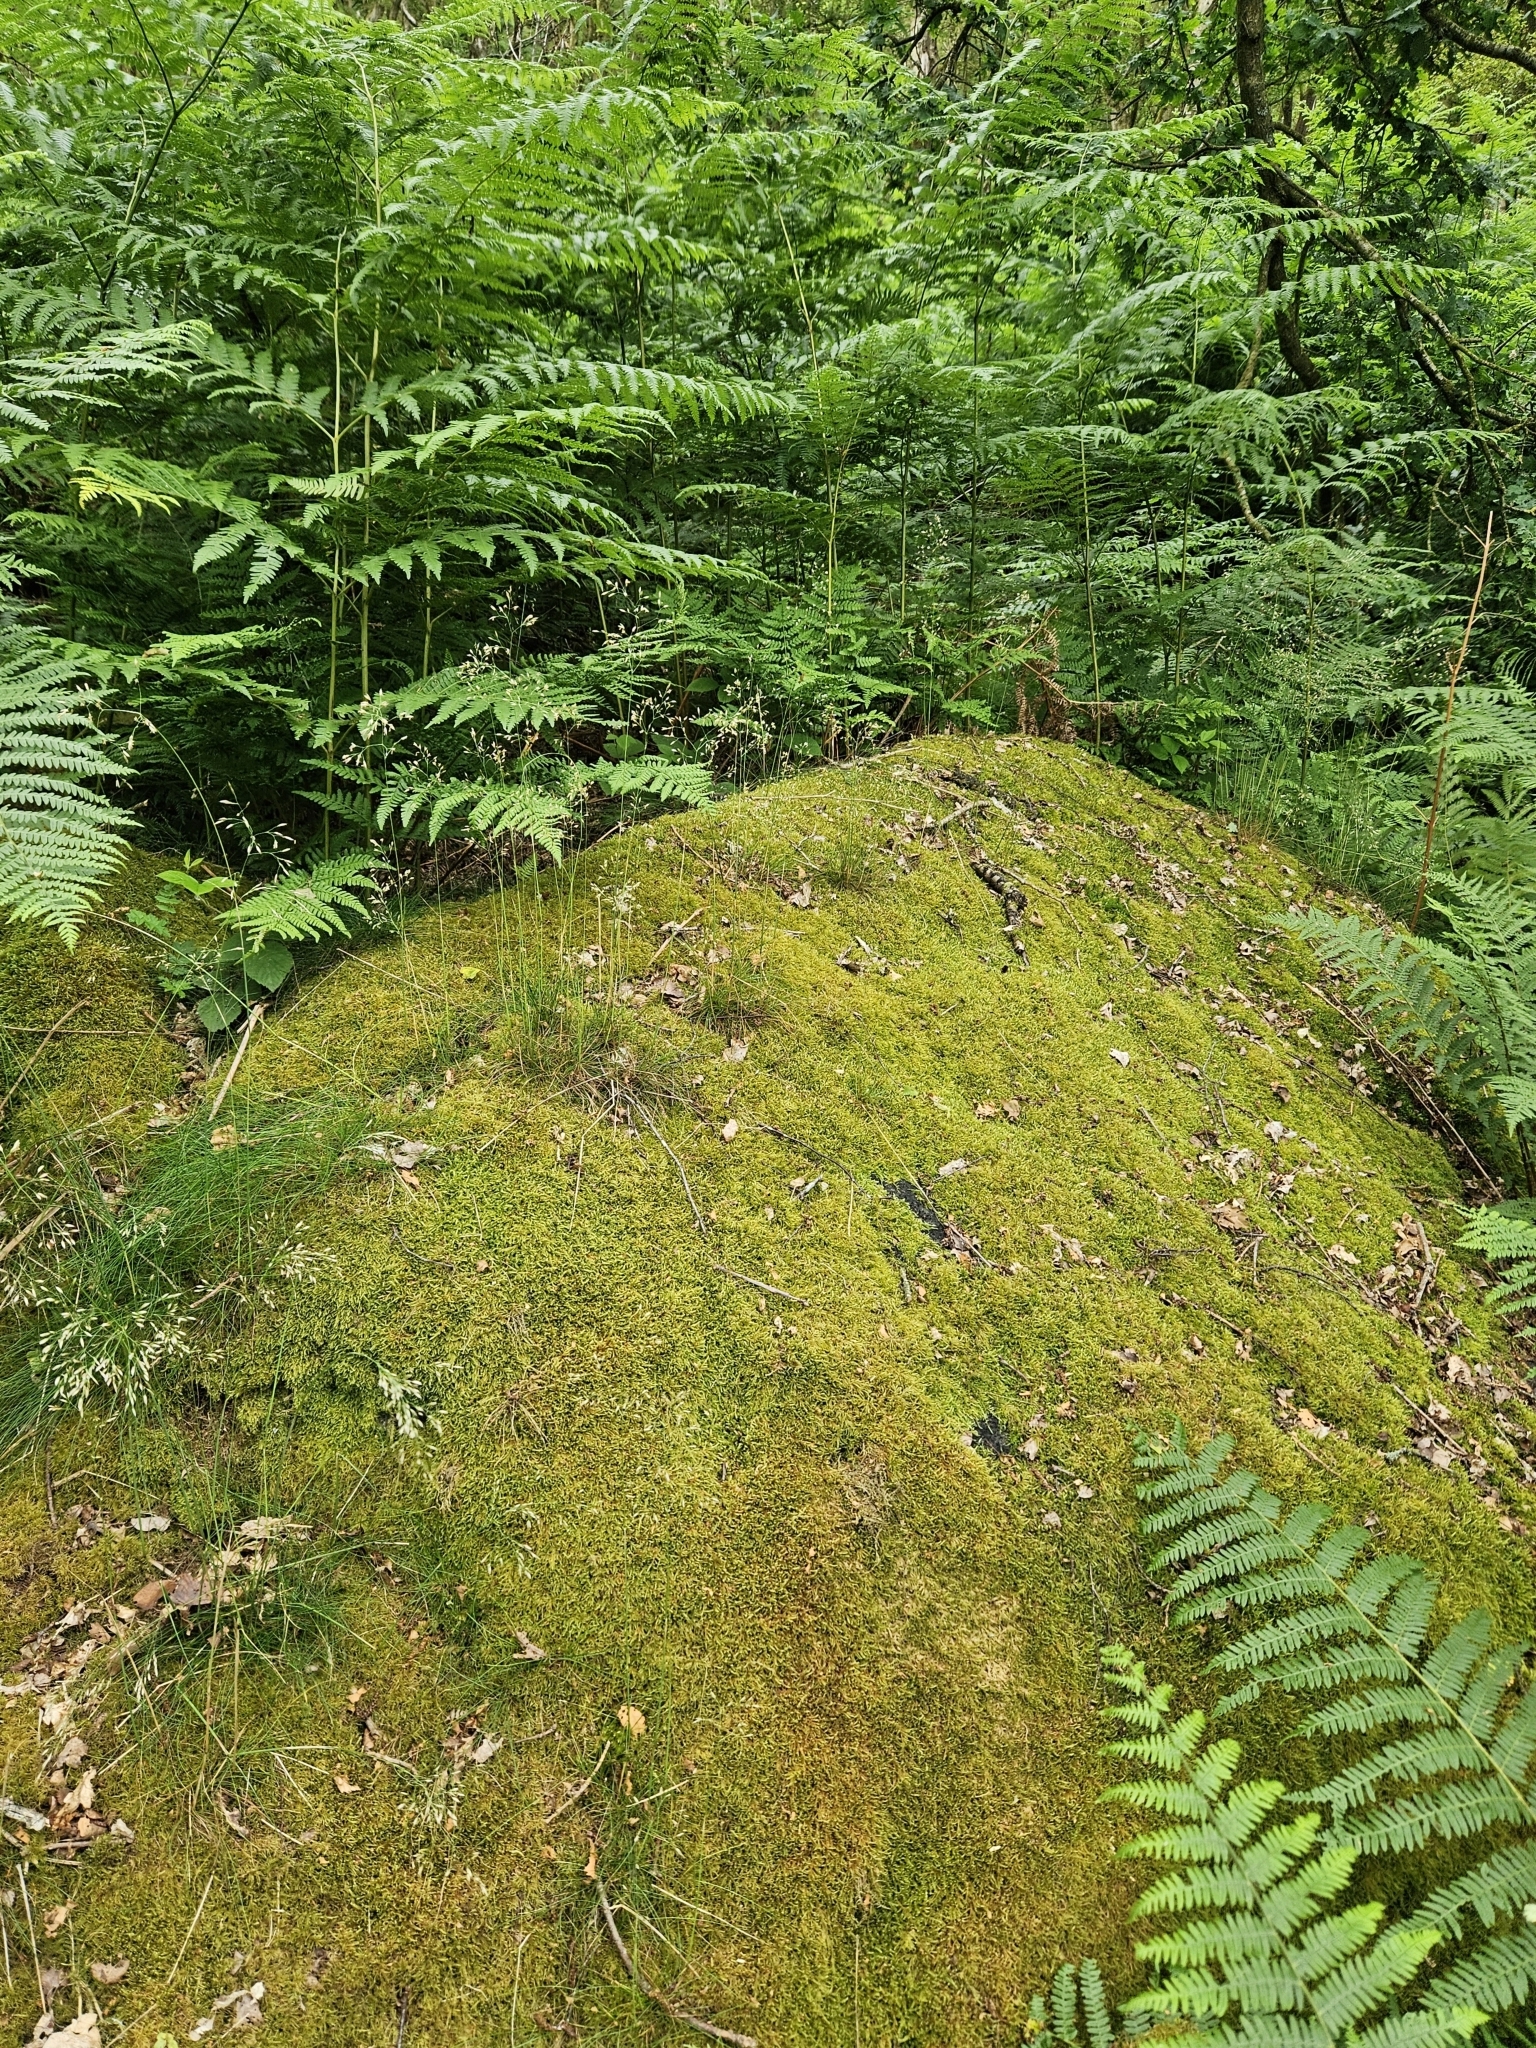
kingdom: Plantae
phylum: Bryophyta
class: Bryopsida
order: Hypnales
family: Hypnaceae
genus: Hypnum
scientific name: Hypnum cupressiforme
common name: Cypress-leaved plait-moss
